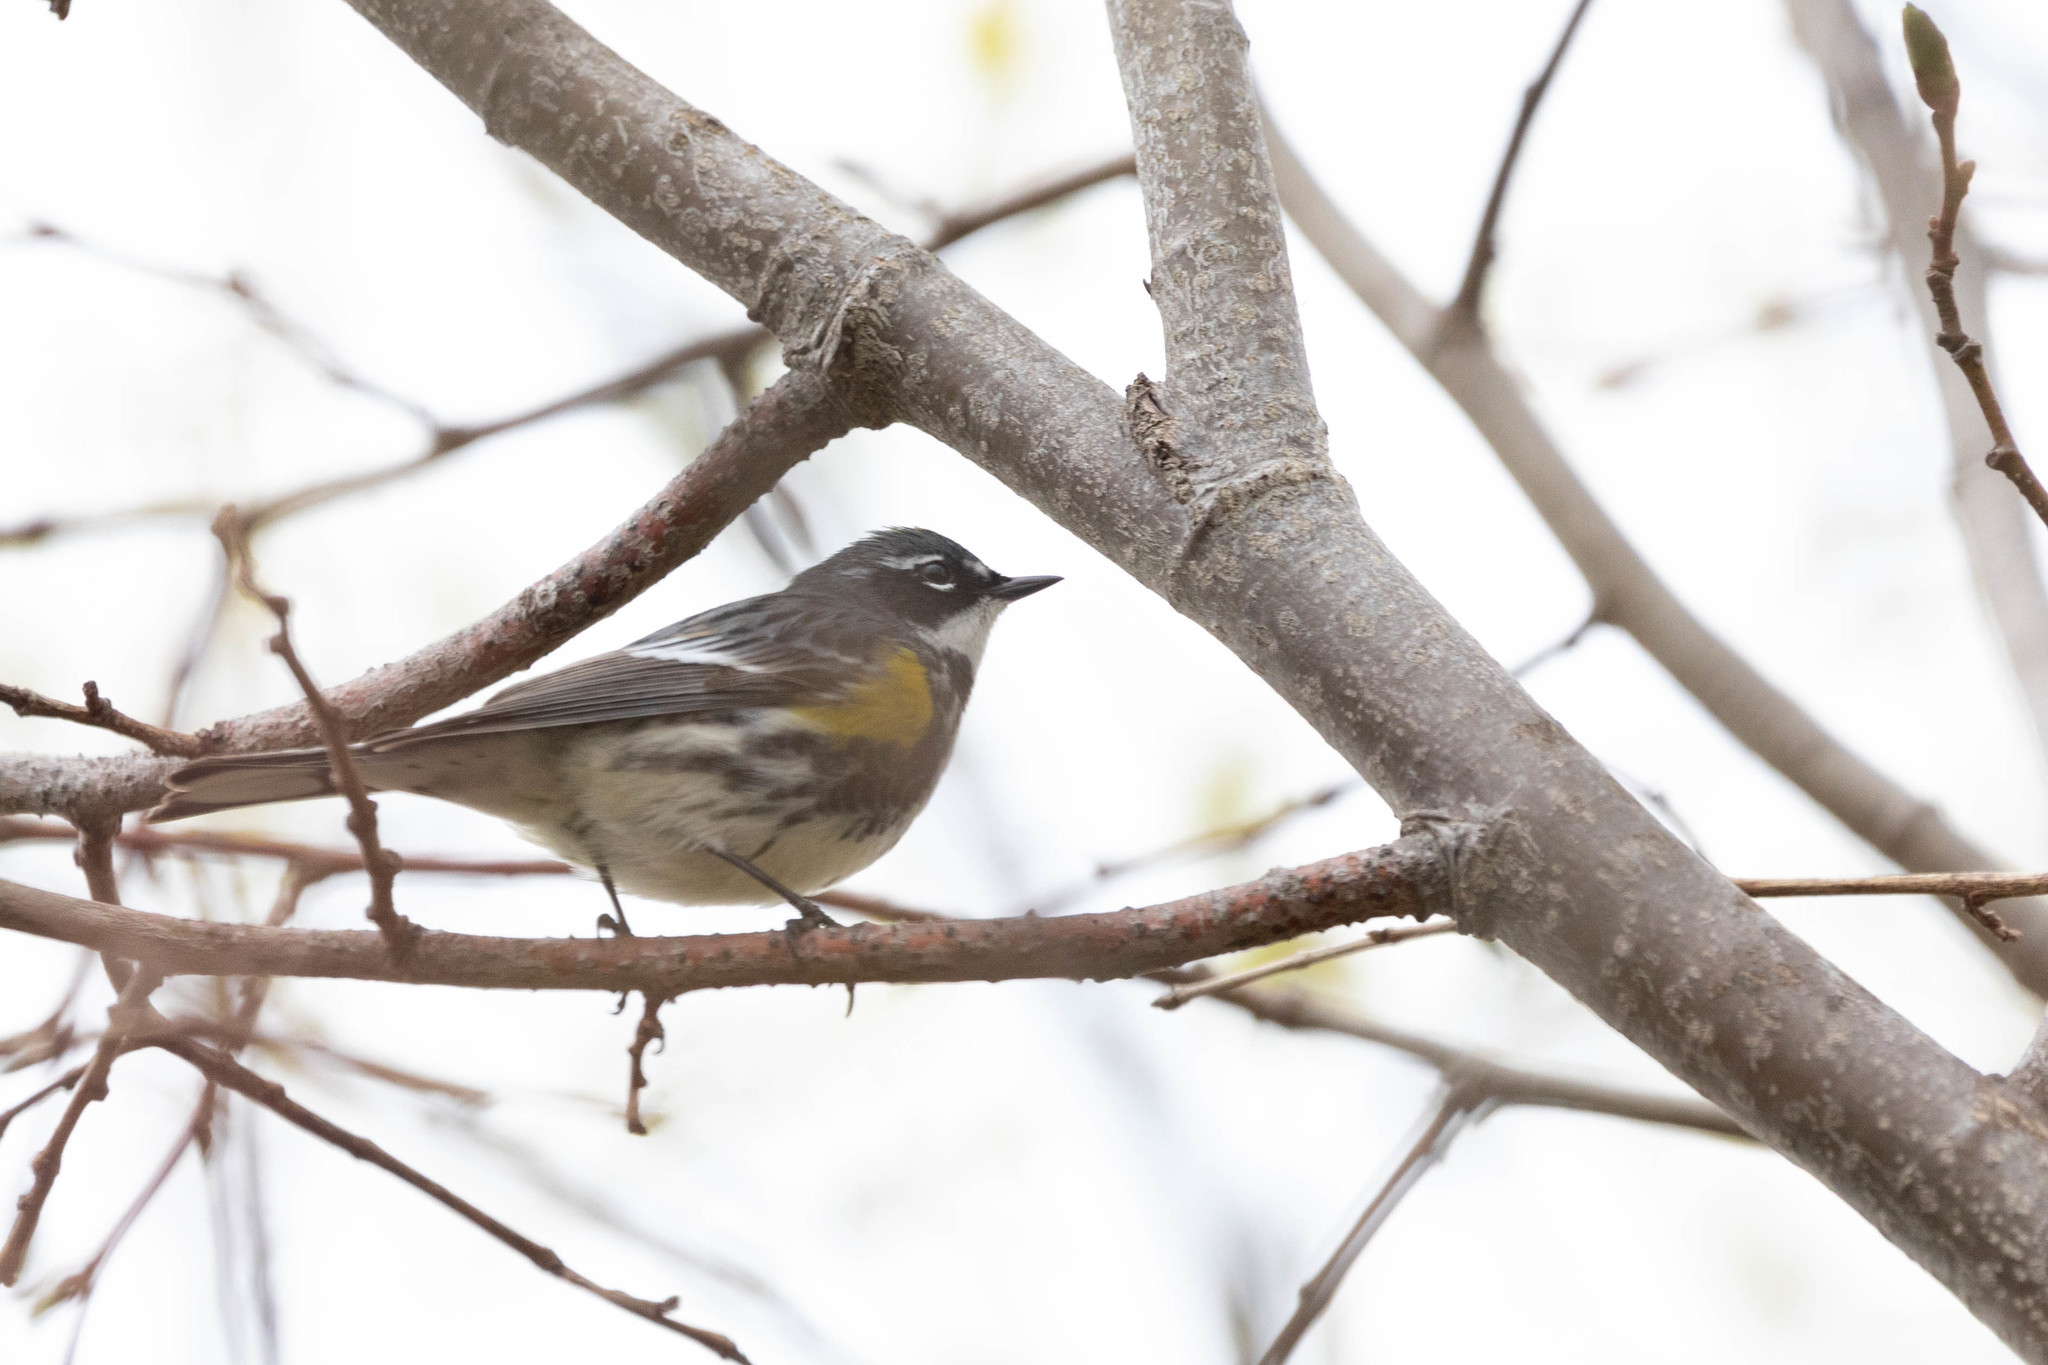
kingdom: Animalia
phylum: Chordata
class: Aves
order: Passeriformes
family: Parulidae
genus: Setophaga
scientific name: Setophaga coronata
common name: Myrtle warbler
